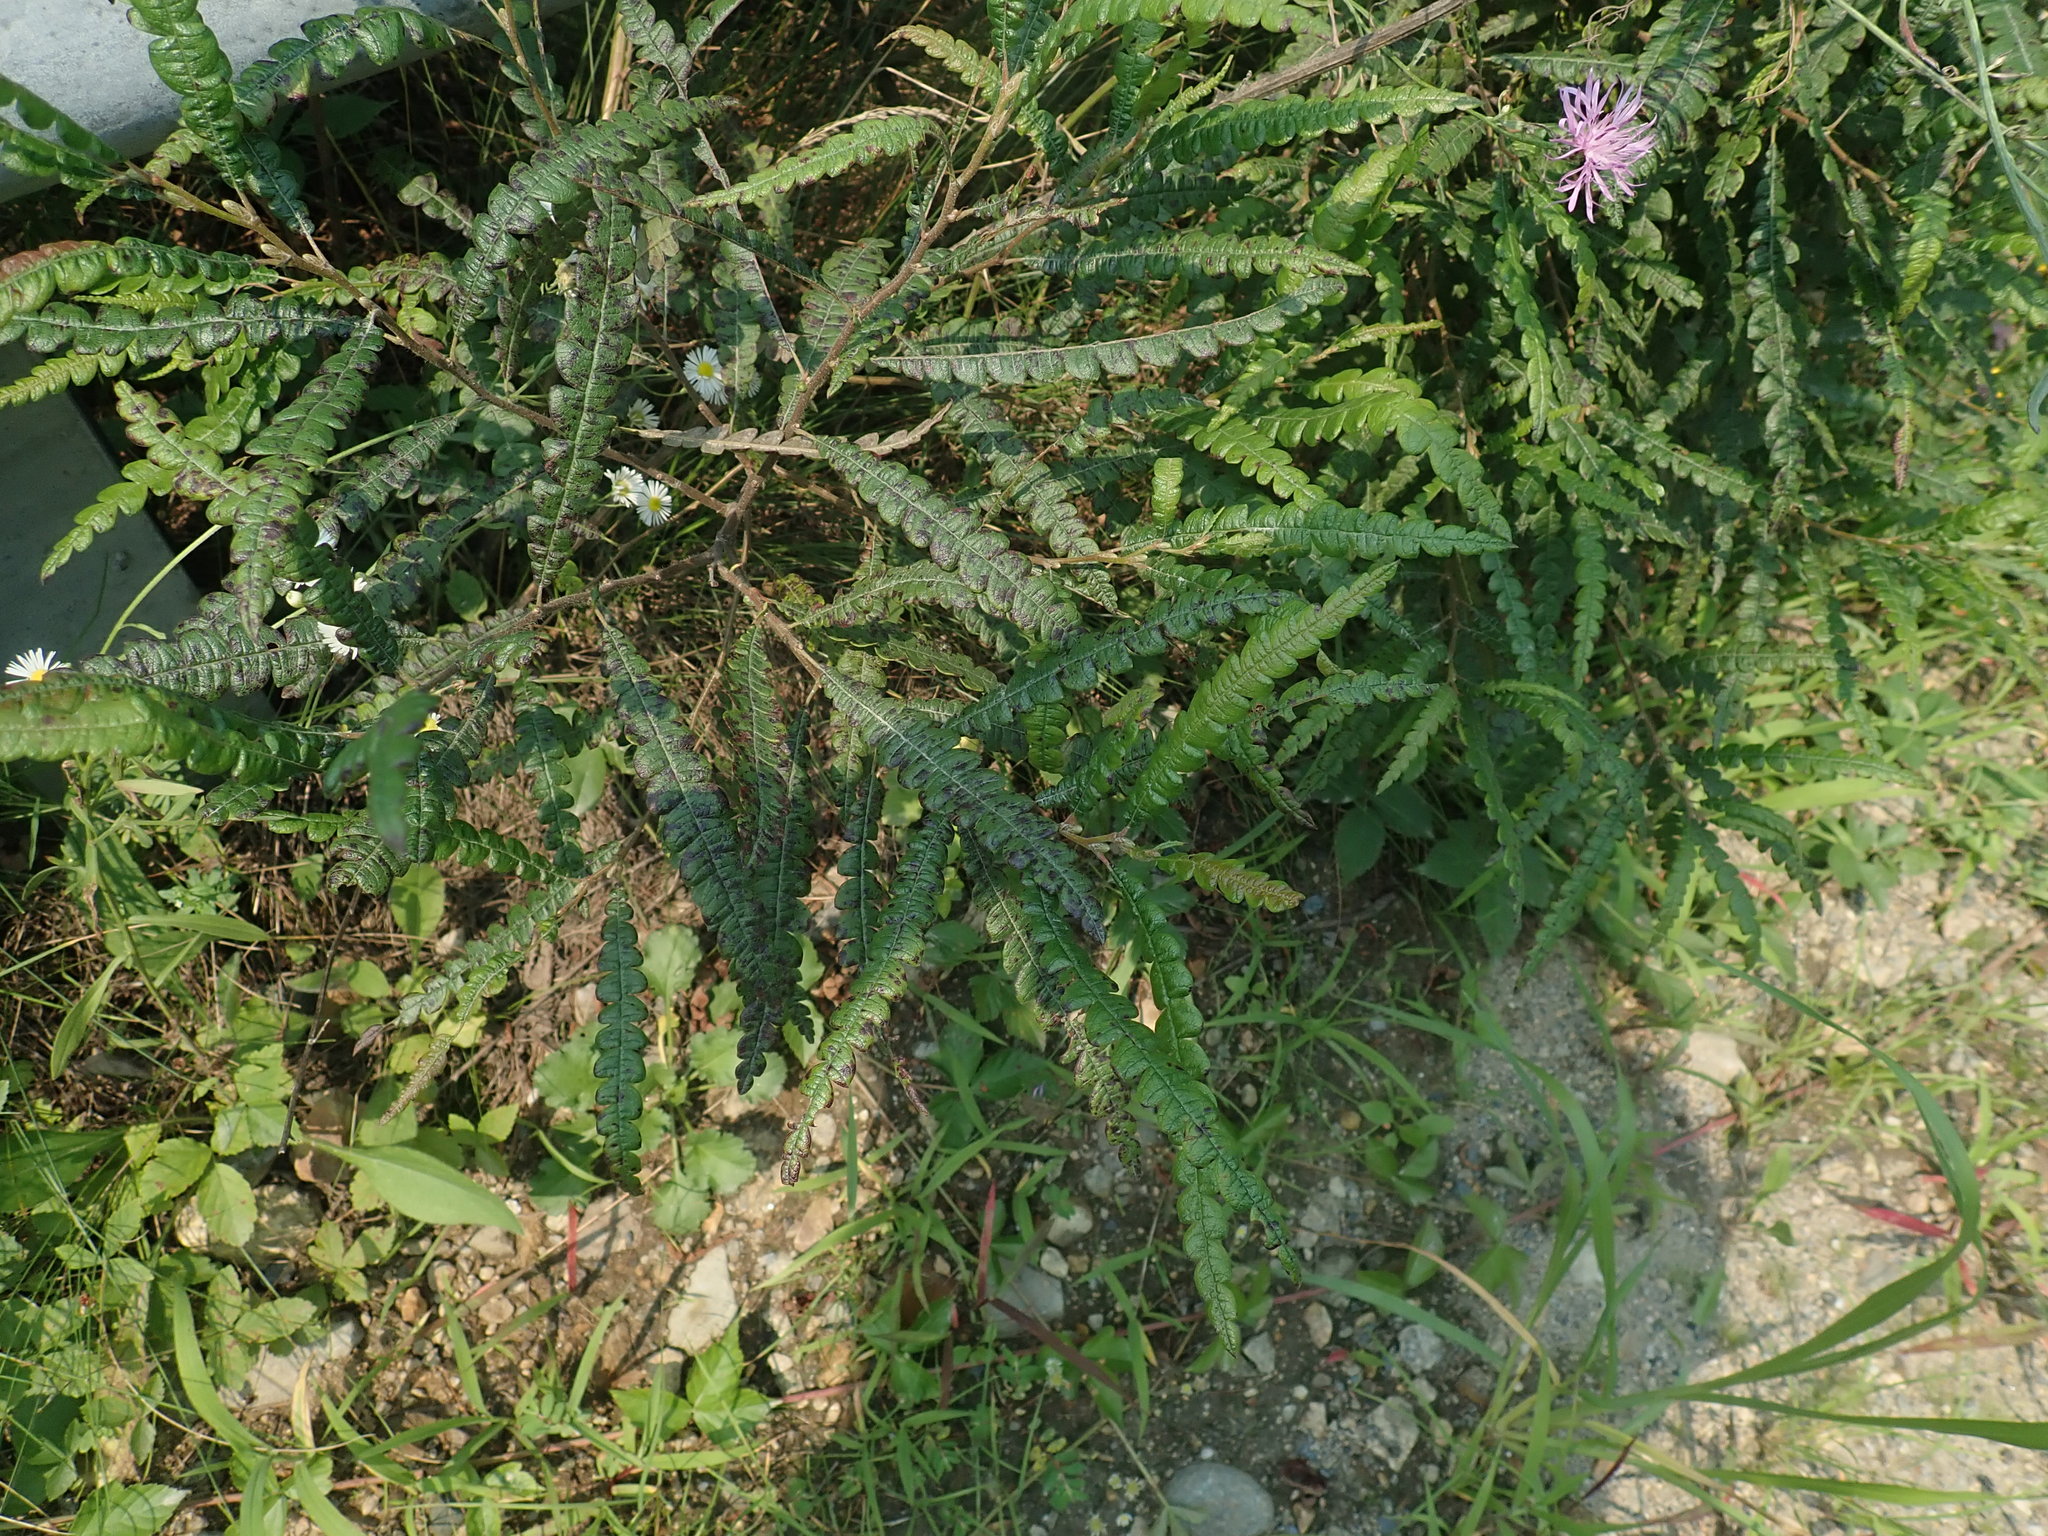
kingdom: Plantae
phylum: Tracheophyta
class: Magnoliopsida
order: Fagales
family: Myricaceae
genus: Comptonia
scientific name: Comptonia peregrina
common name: Sweet-fern
